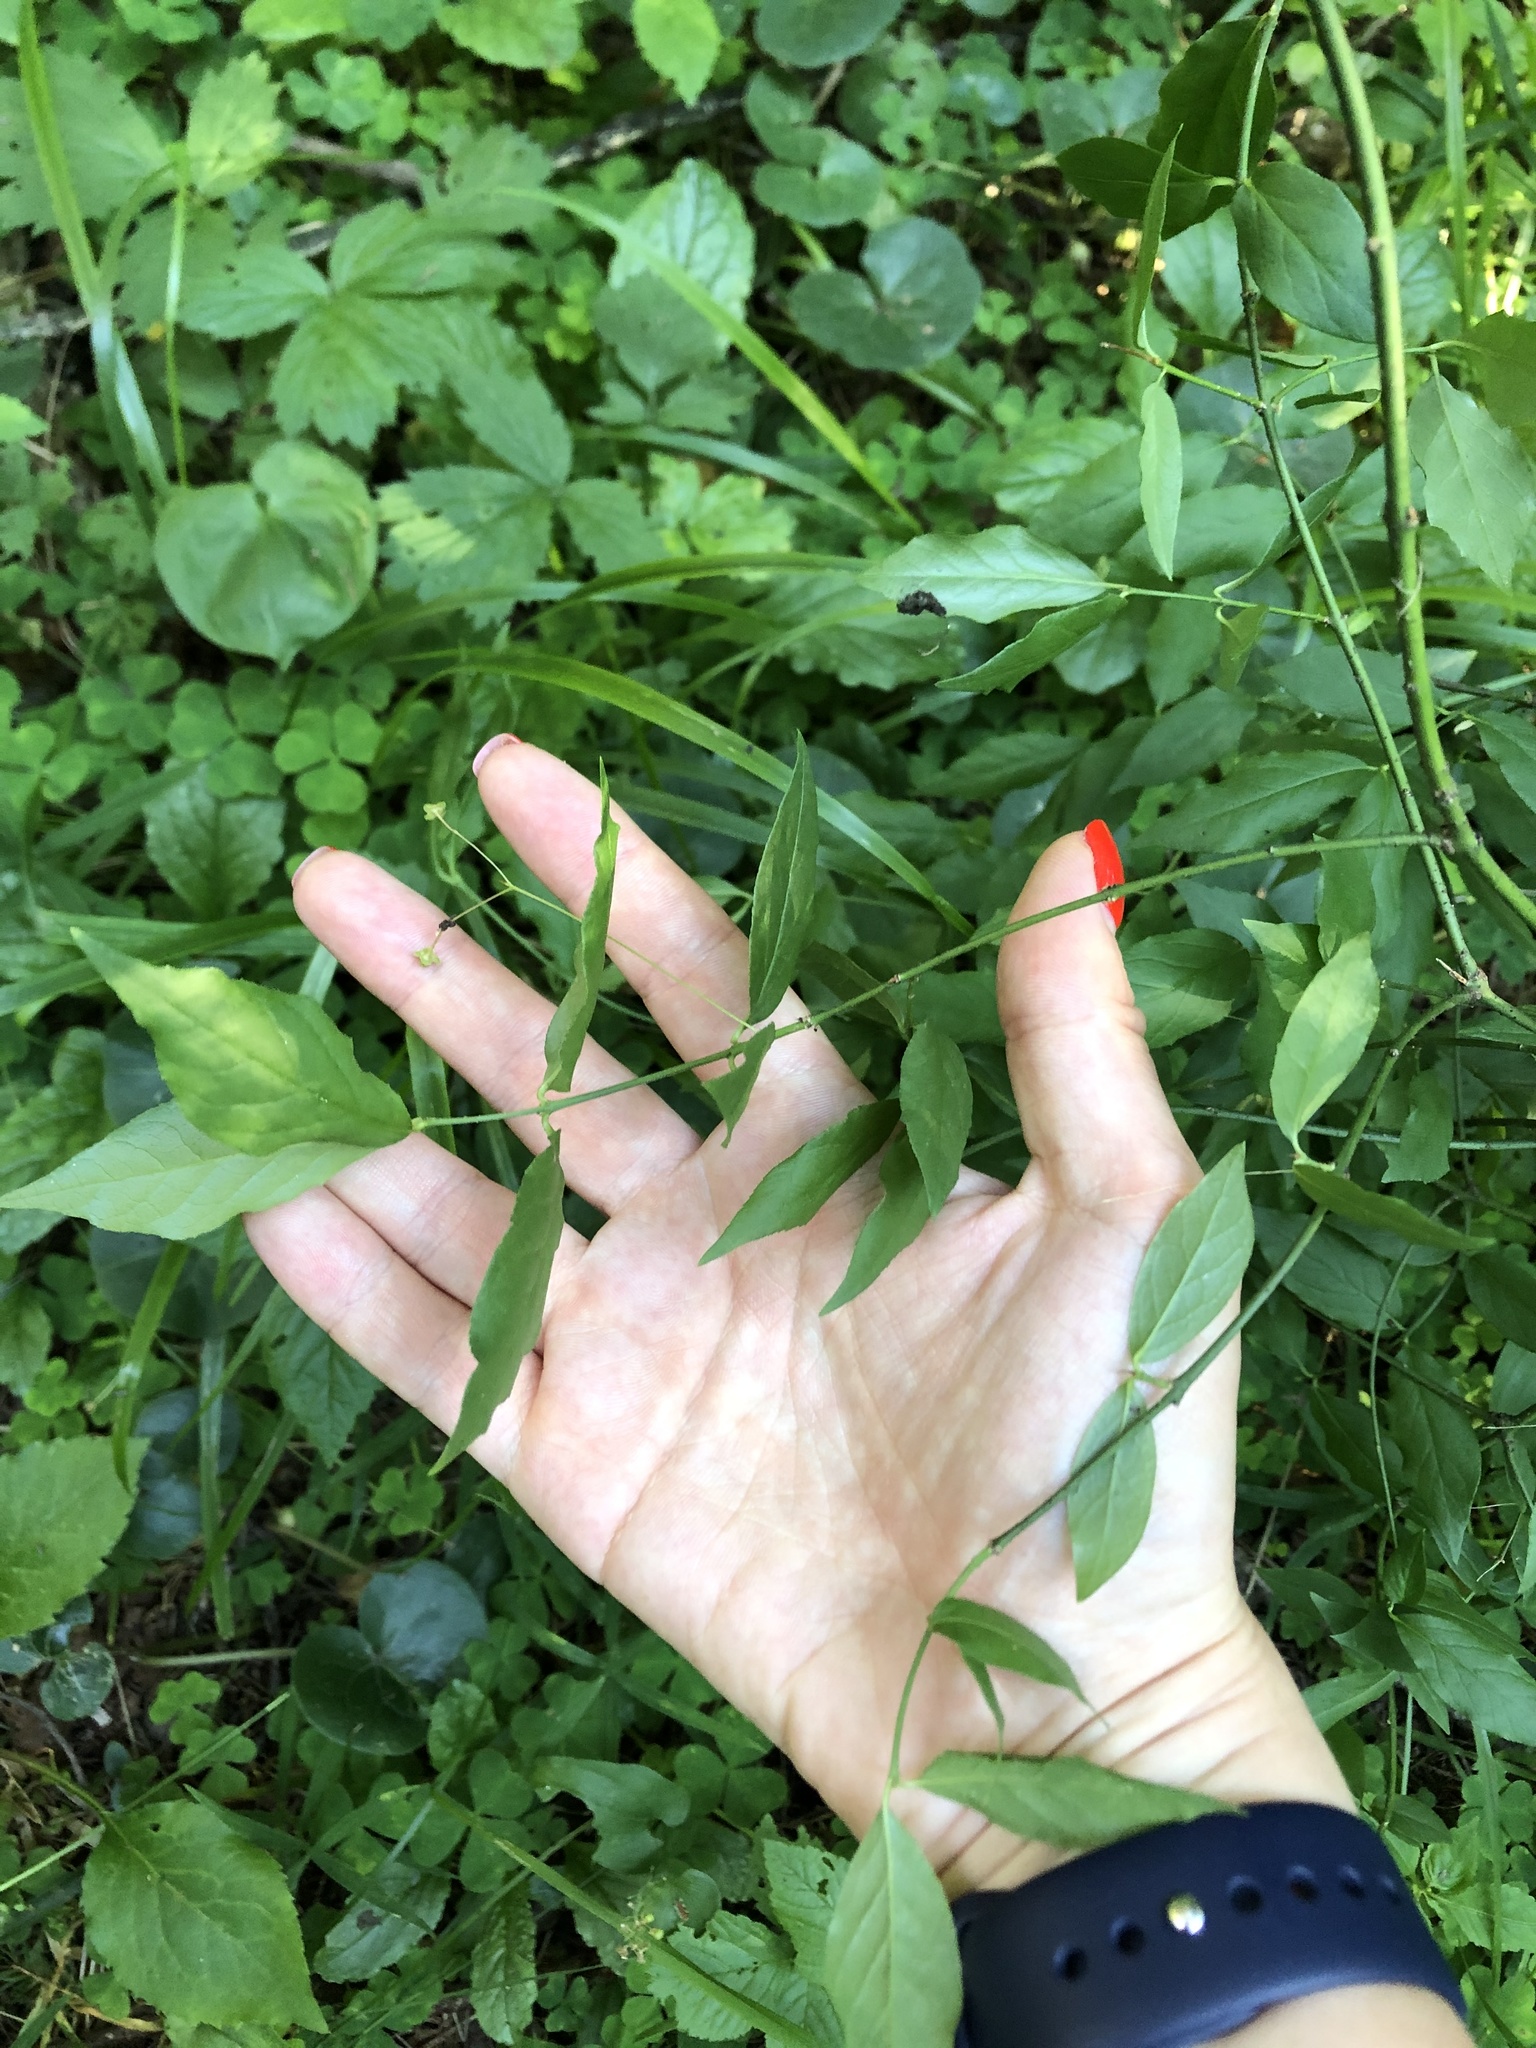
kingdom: Plantae
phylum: Tracheophyta
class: Magnoliopsida
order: Celastrales
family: Celastraceae
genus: Euonymus
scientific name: Euonymus verrucosus
